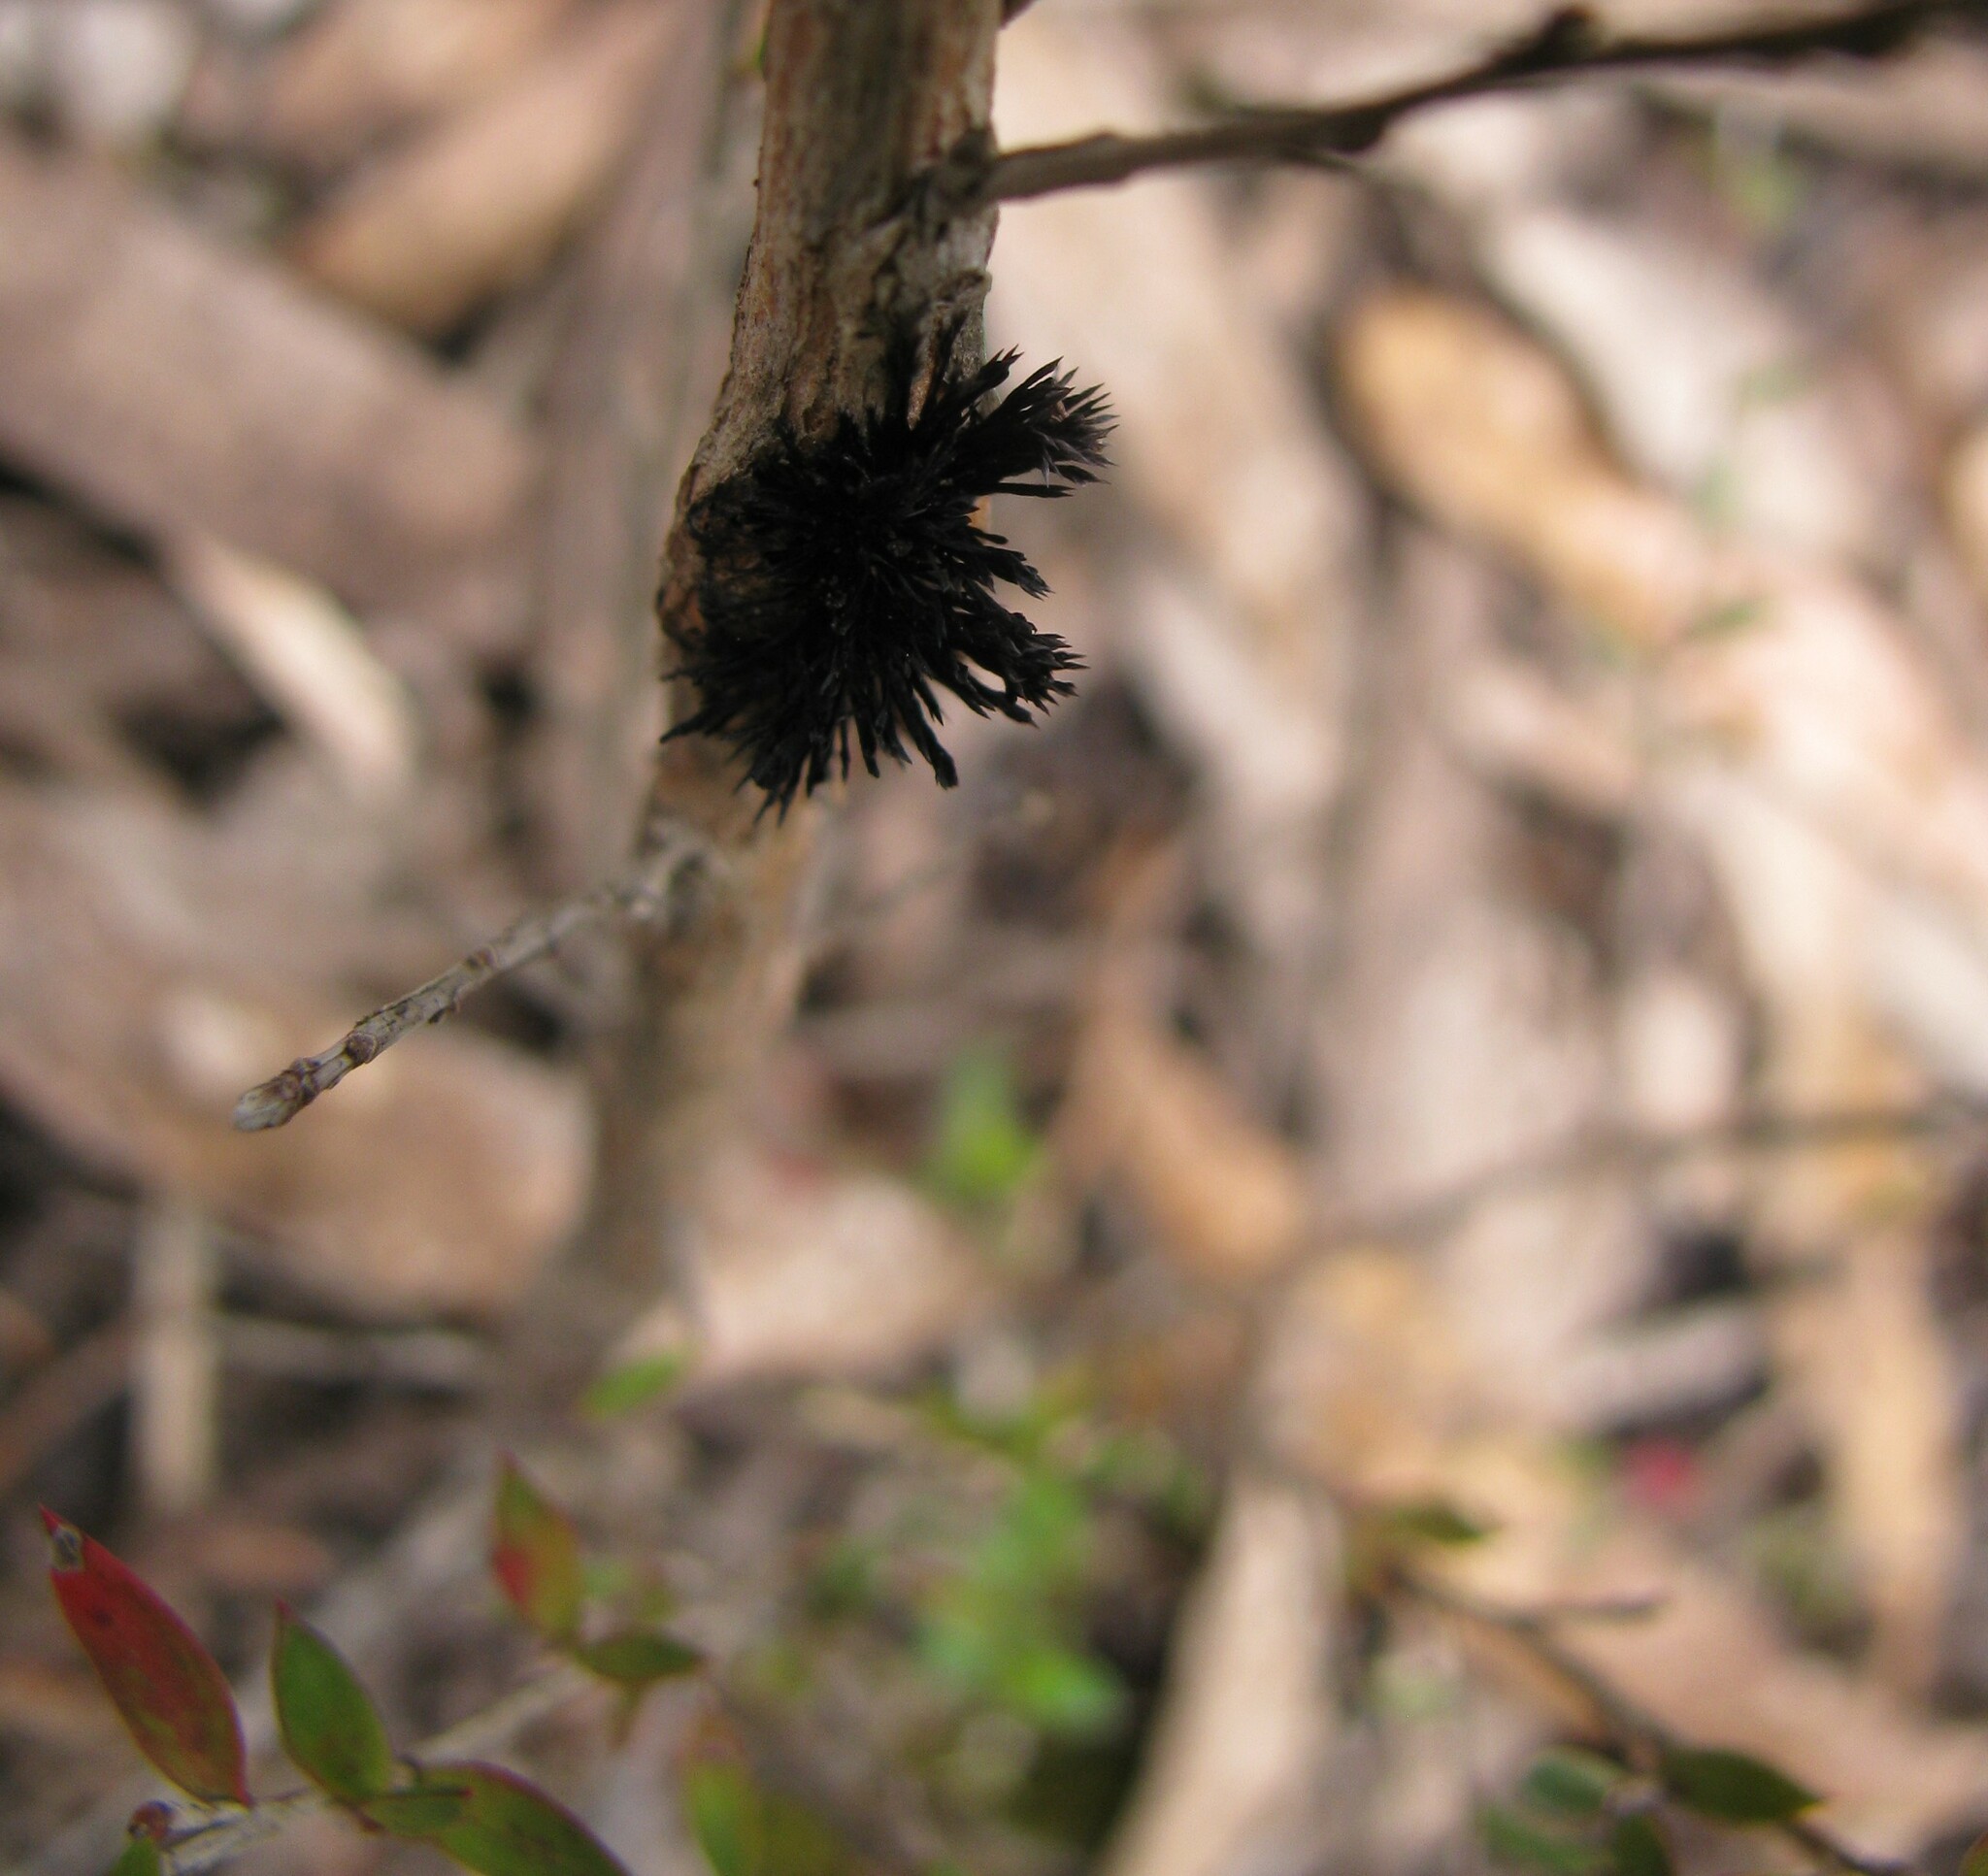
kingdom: Fungi
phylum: Basidiomycota
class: Pucciniomycetes
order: Septobasidiales
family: Septobasidiaceae
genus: Septobasidium
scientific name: Septobasidium clelandii
